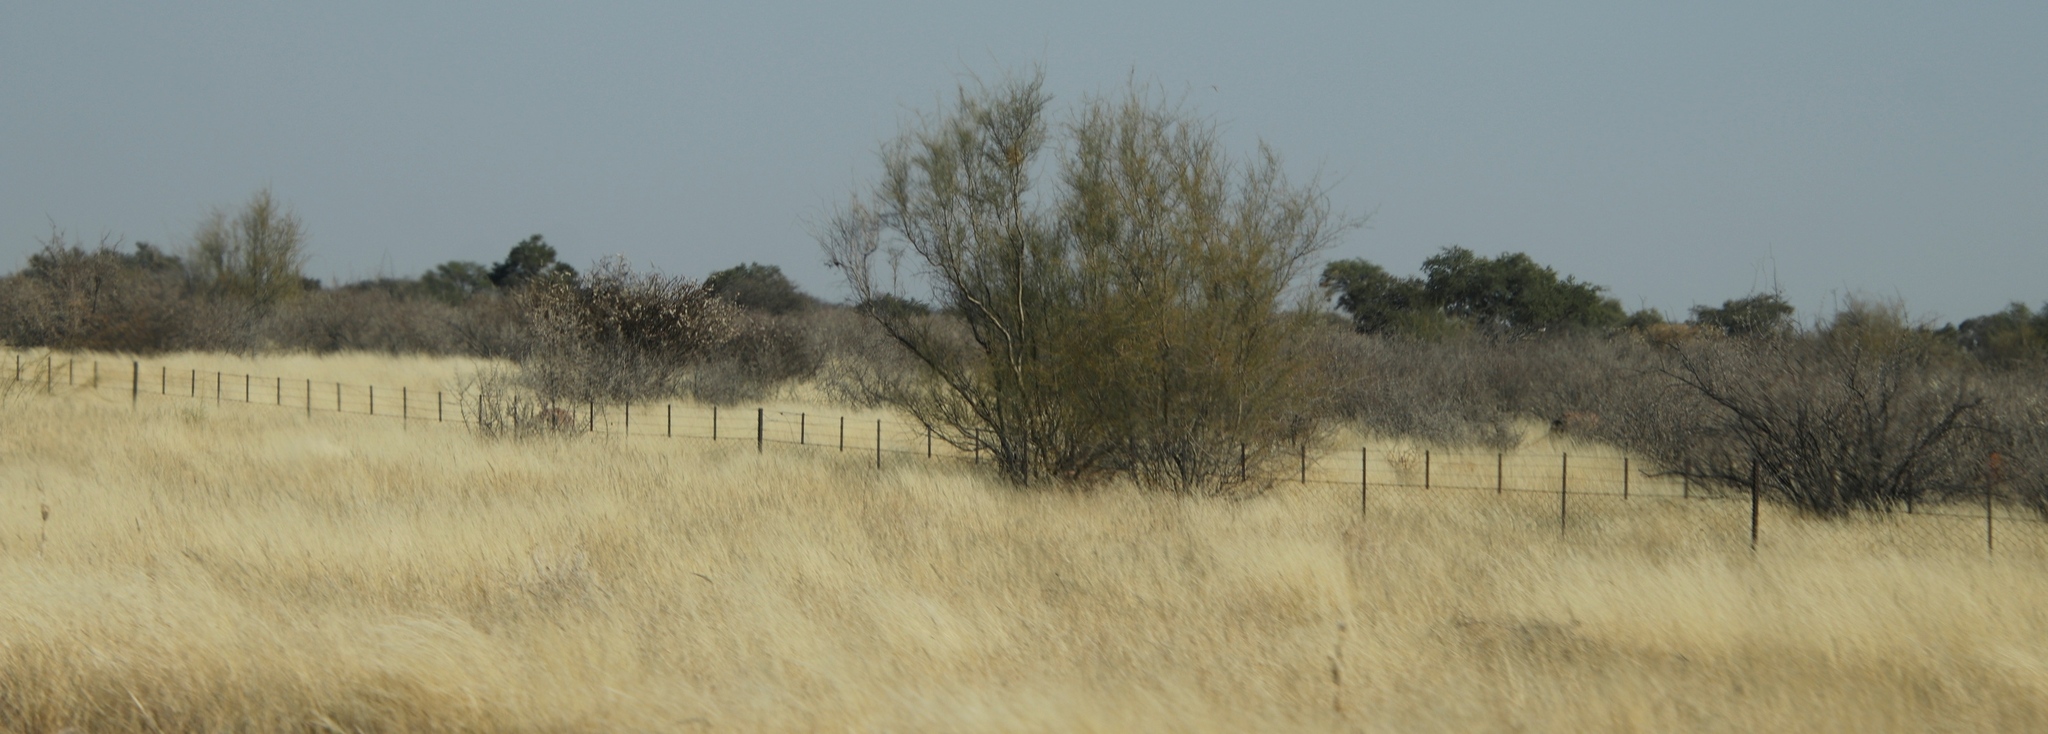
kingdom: Plantae
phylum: Tracheophyta
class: Magnoliopsida
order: Fabales
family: Fabaceae
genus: Parkinsonia
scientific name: Parkinsonia africana
